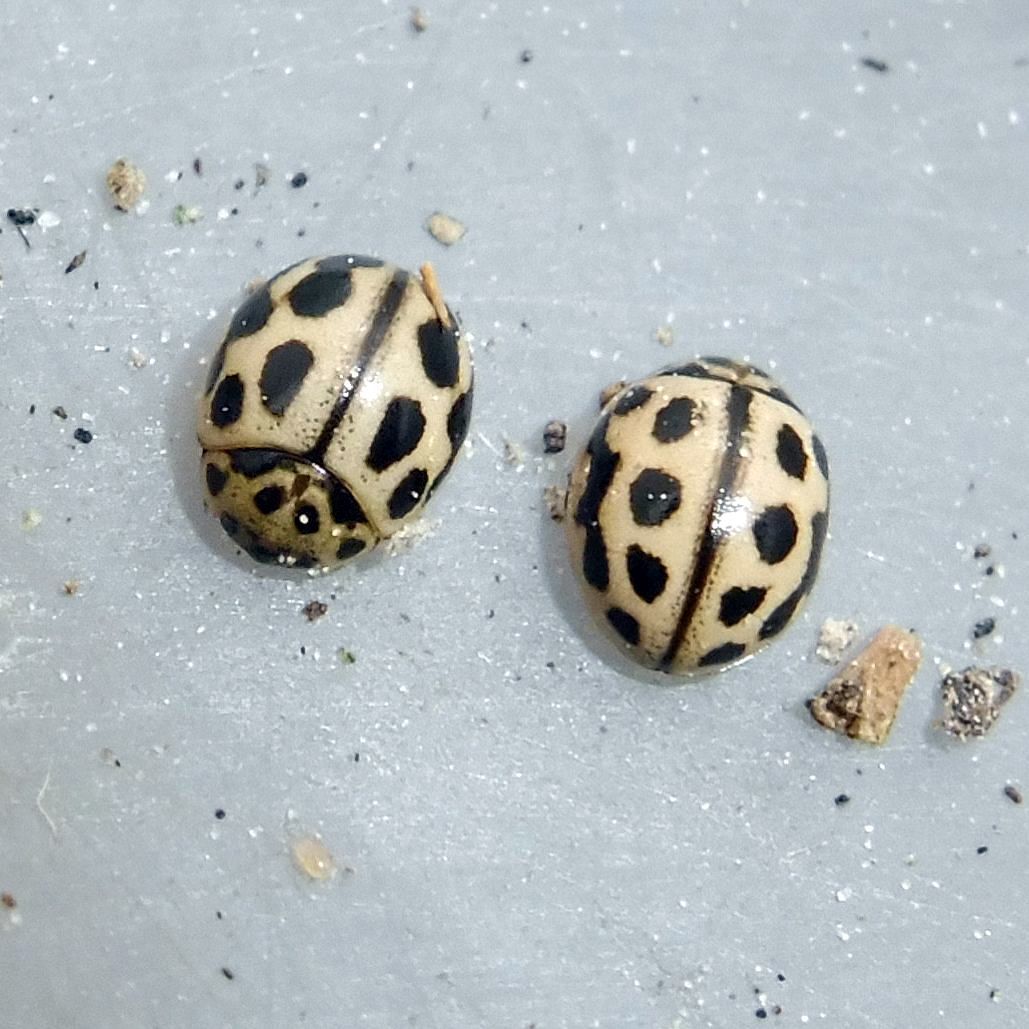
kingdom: Animalia
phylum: Arthropoda
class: Insecta
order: Coleoptera
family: Coccinellidae
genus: Tytthaspis
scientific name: Tytthaspis sedecimpunctata
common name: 16-spot ladybird
